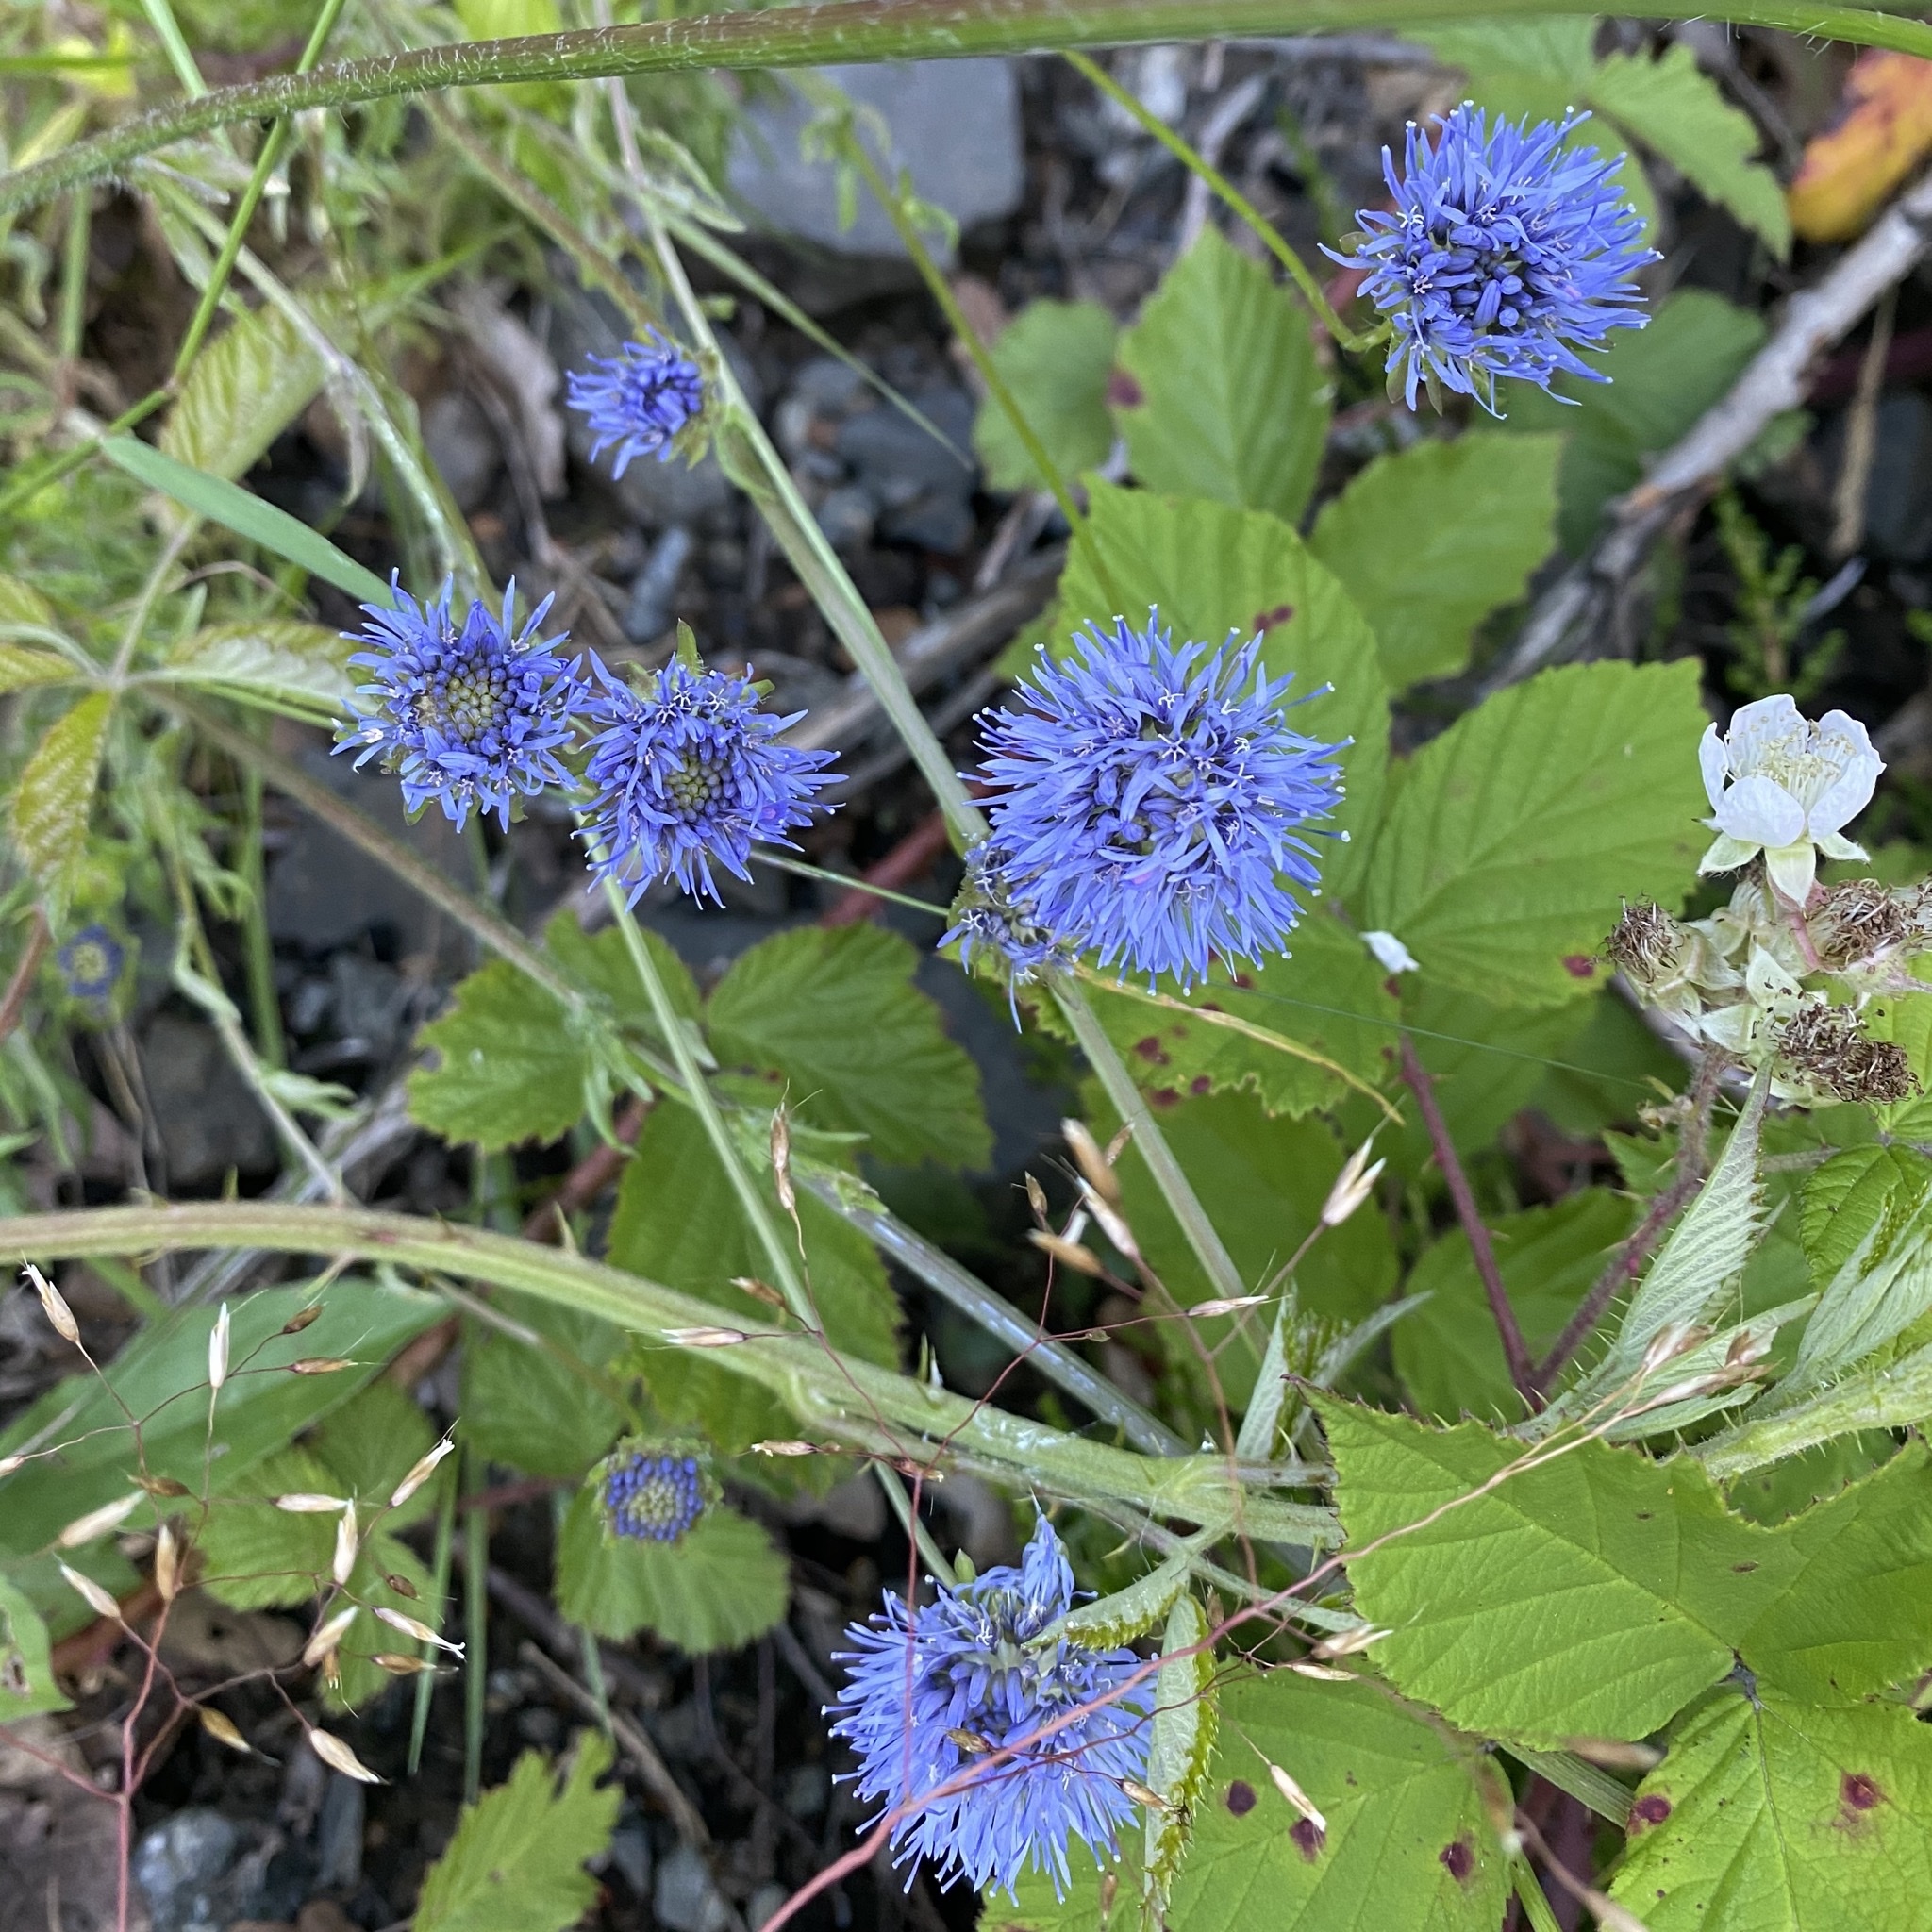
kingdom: Plantae
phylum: Tracheophyta
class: Magnoliopsida
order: Asterales
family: Campanulaceae
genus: Jasione
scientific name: Jasione montana
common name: Sheep's-bit
